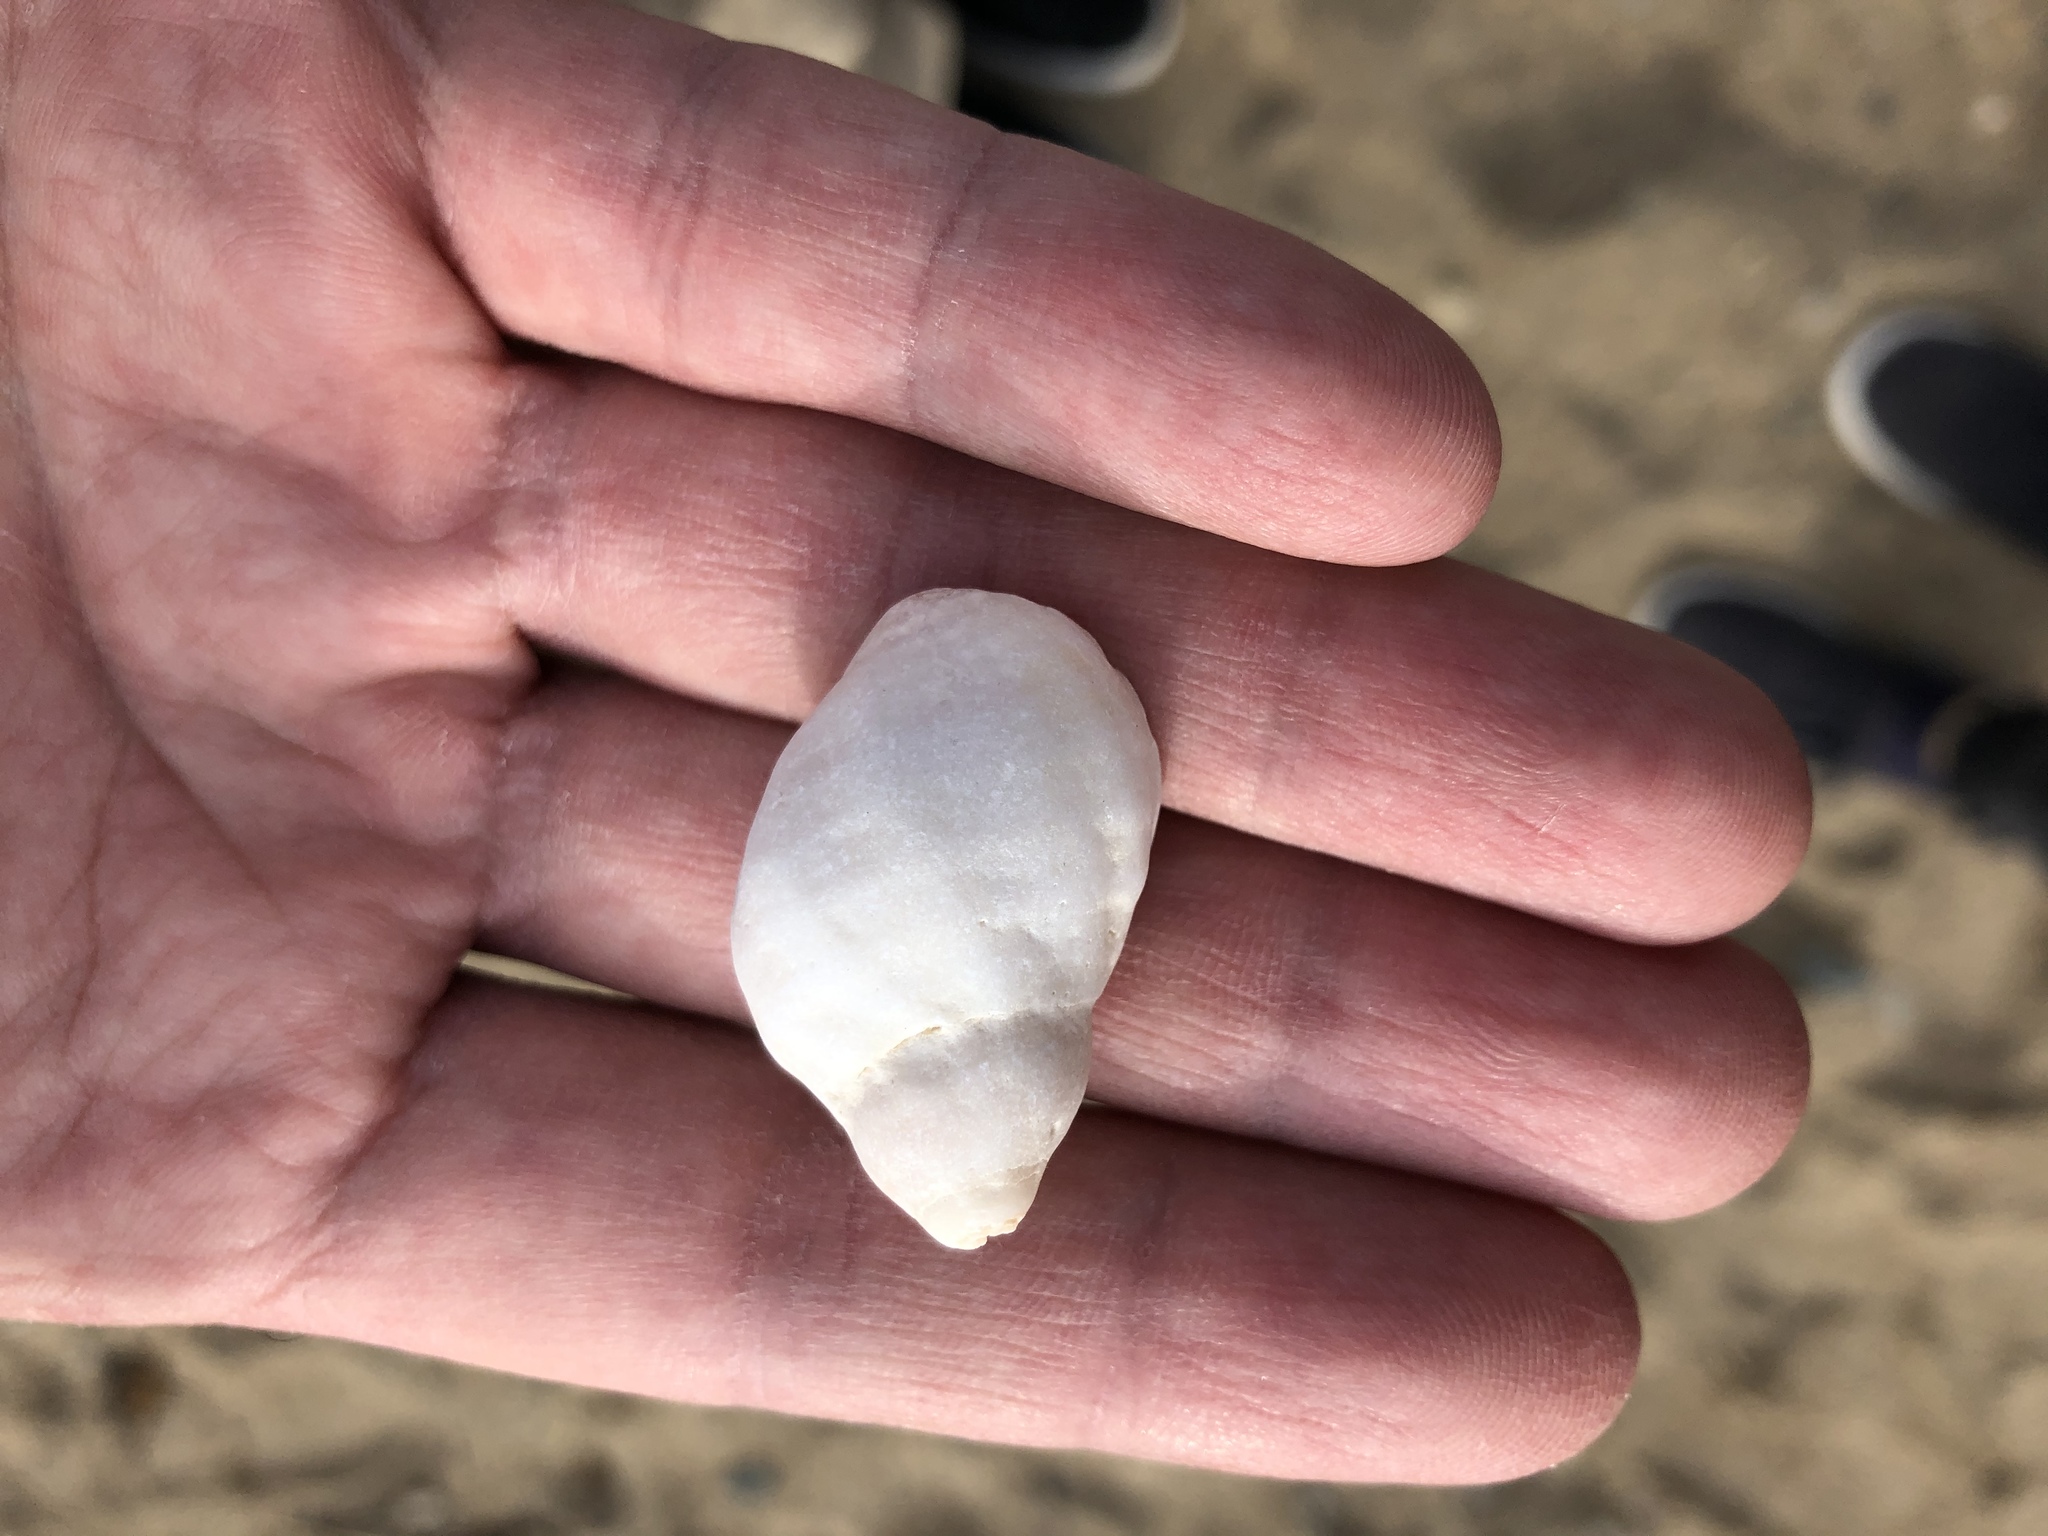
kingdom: Animalia
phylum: Mollusca
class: Gastropoda
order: Neogastropoda
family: Muricidae
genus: Nucella
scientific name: Nucella lapillus
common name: Dog whelk
